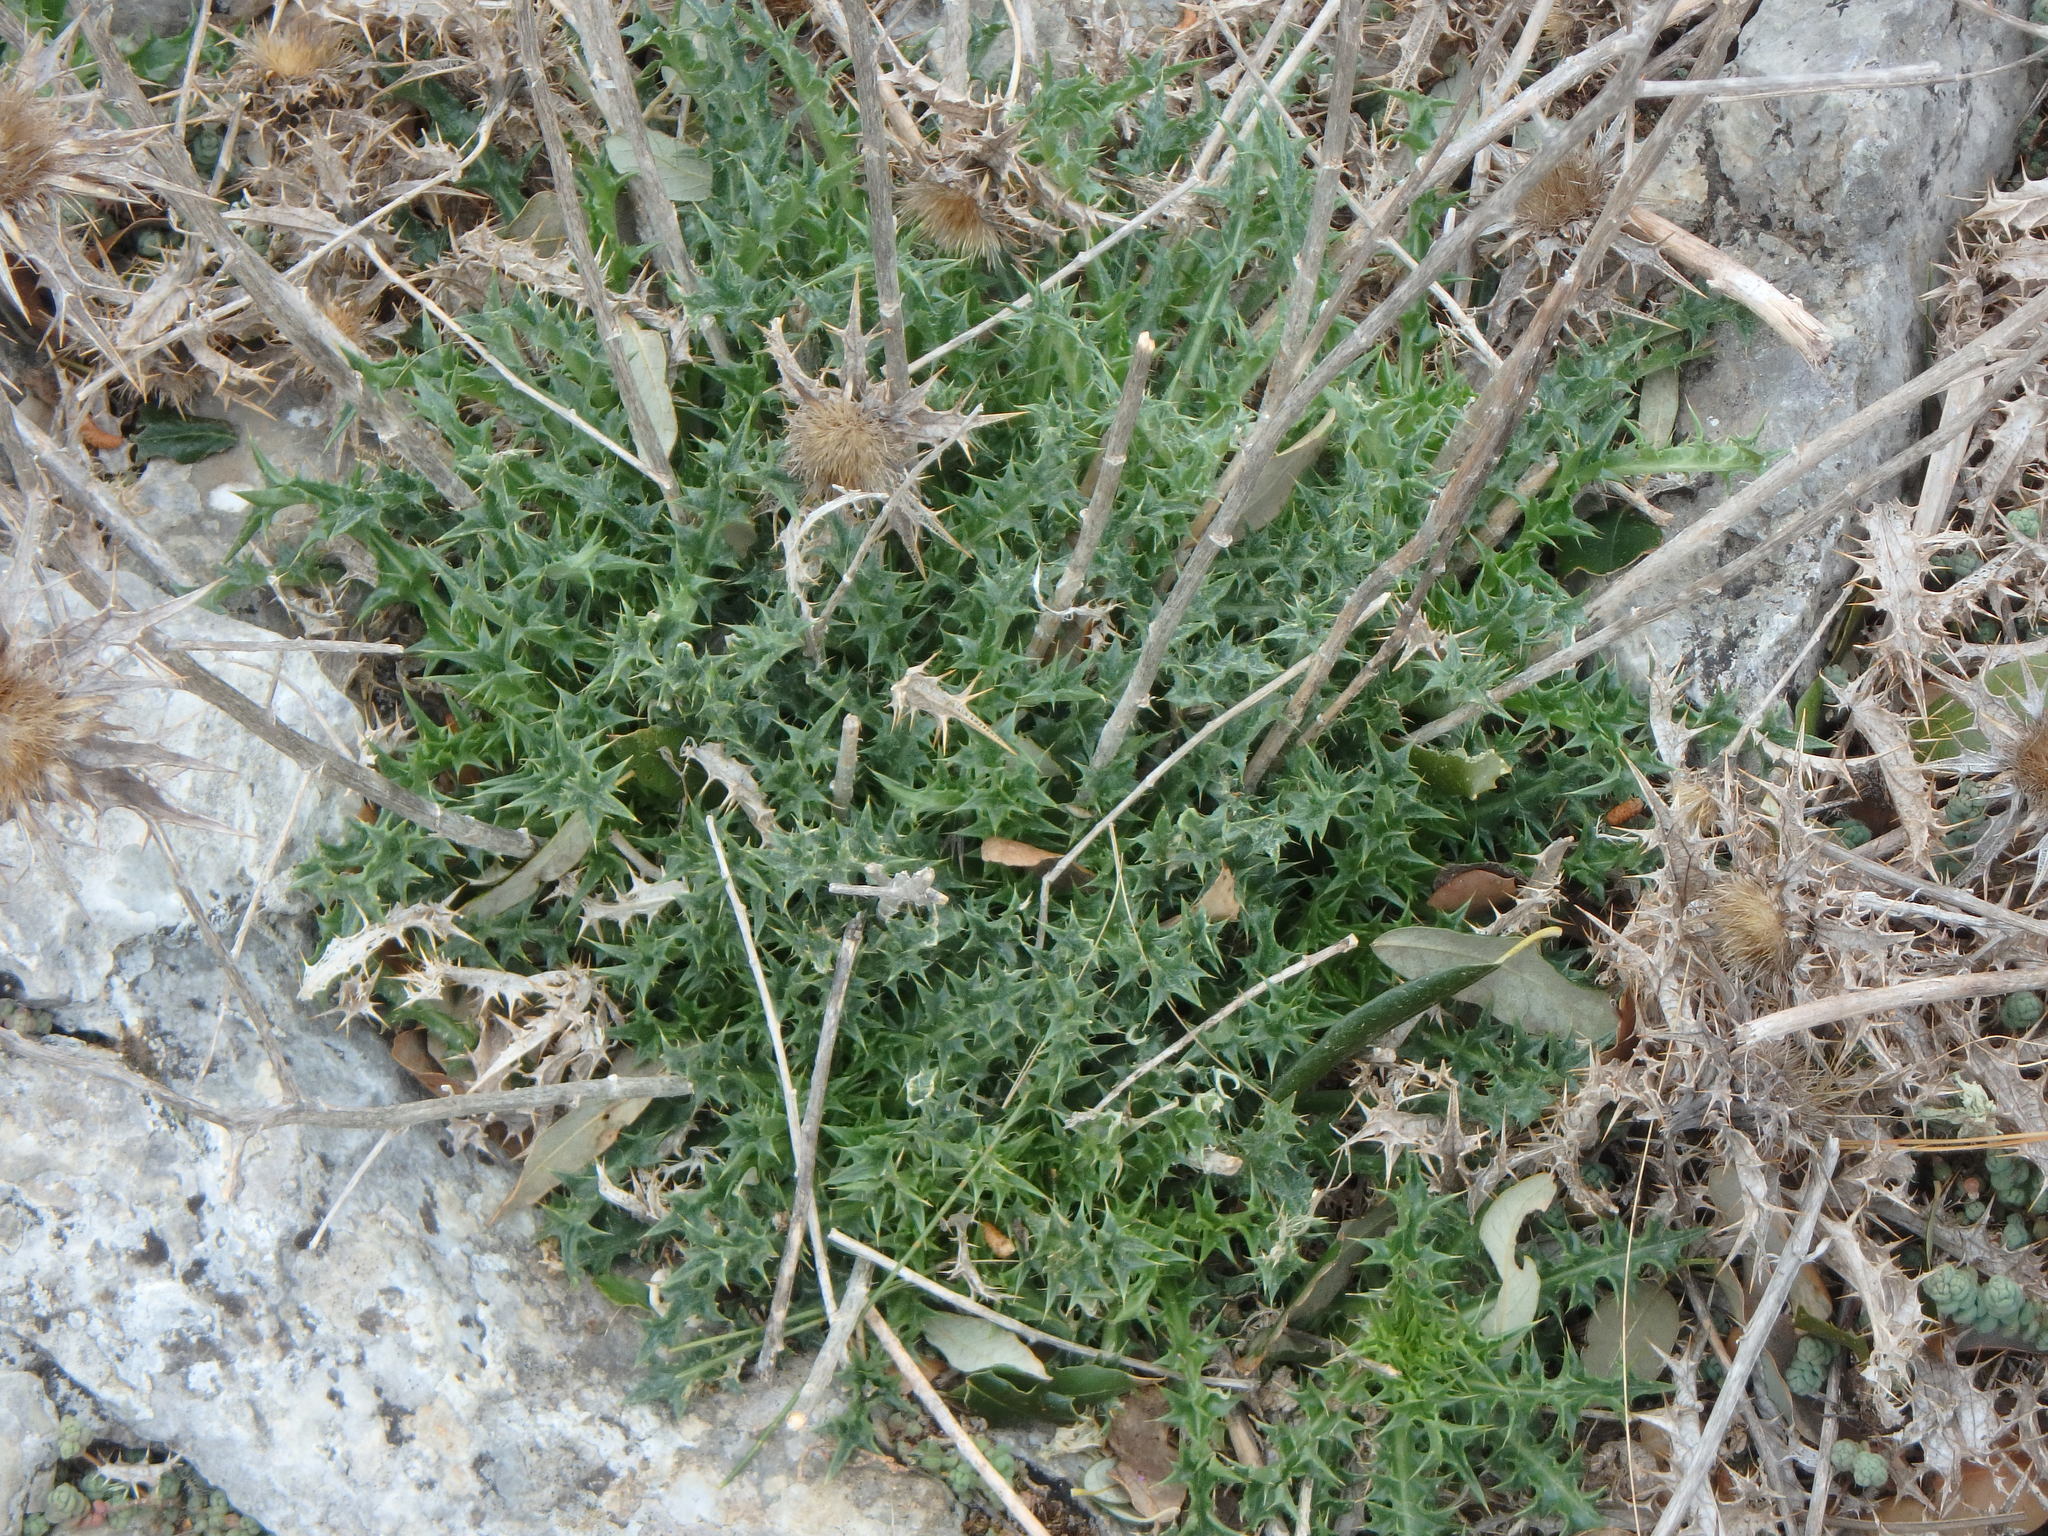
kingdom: Plantae
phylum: Tracheophyta
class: Magnoliopsida
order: Asterales
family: Asteraceae
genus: Carlina
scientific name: Carlina corymbosa
